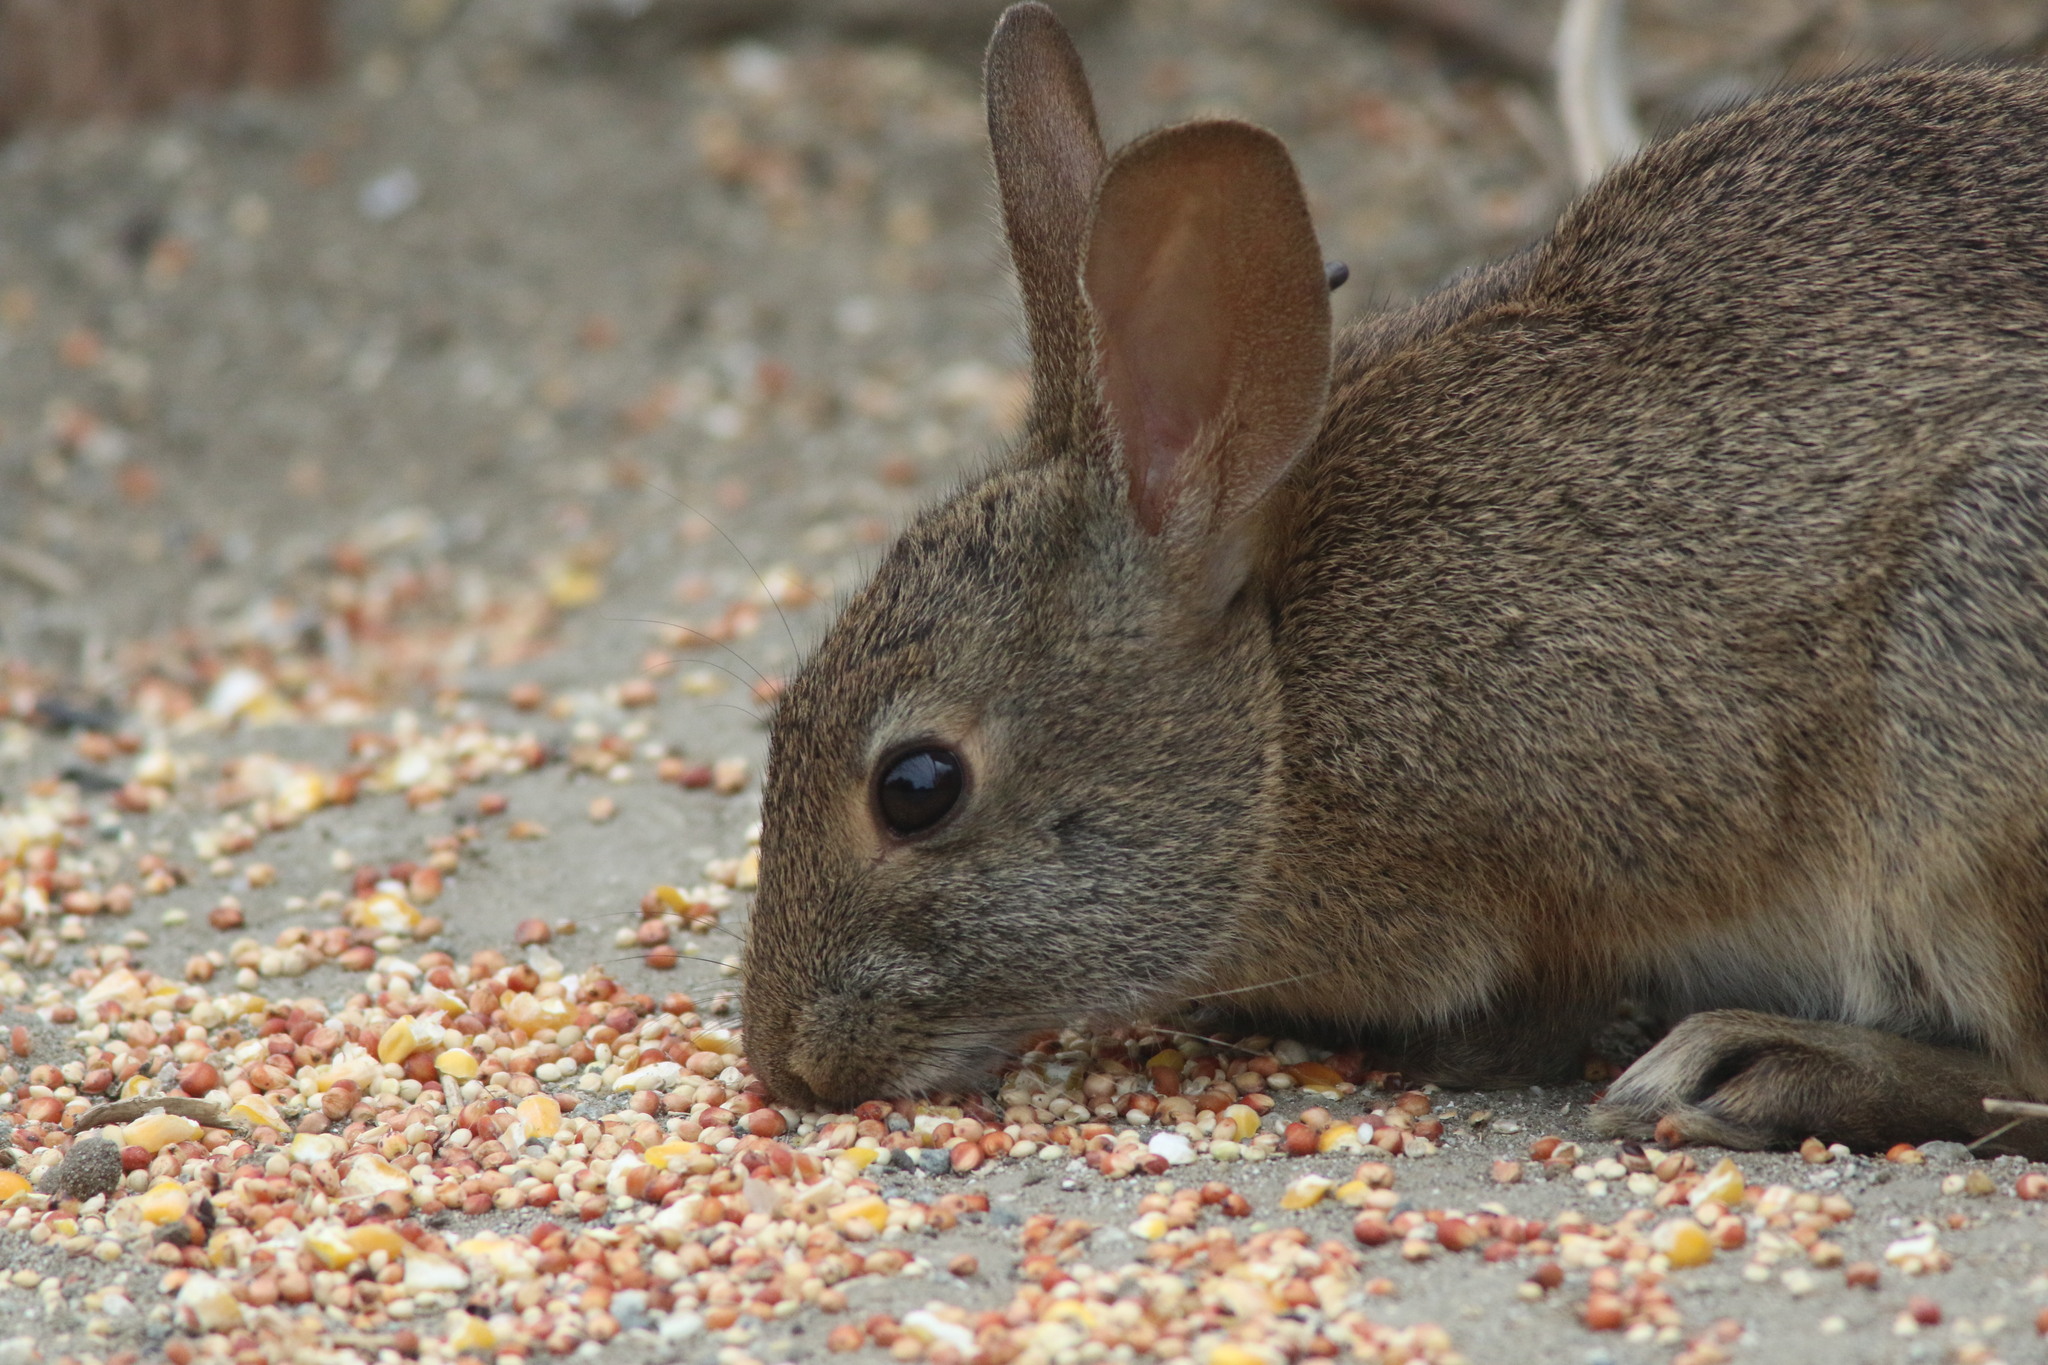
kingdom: Animalia
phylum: Chordata
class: Mammalia
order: Lagomorpha
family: Leporidae
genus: Sylvilagus
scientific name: Sylvilagus bachmani
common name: Brush rabbit
